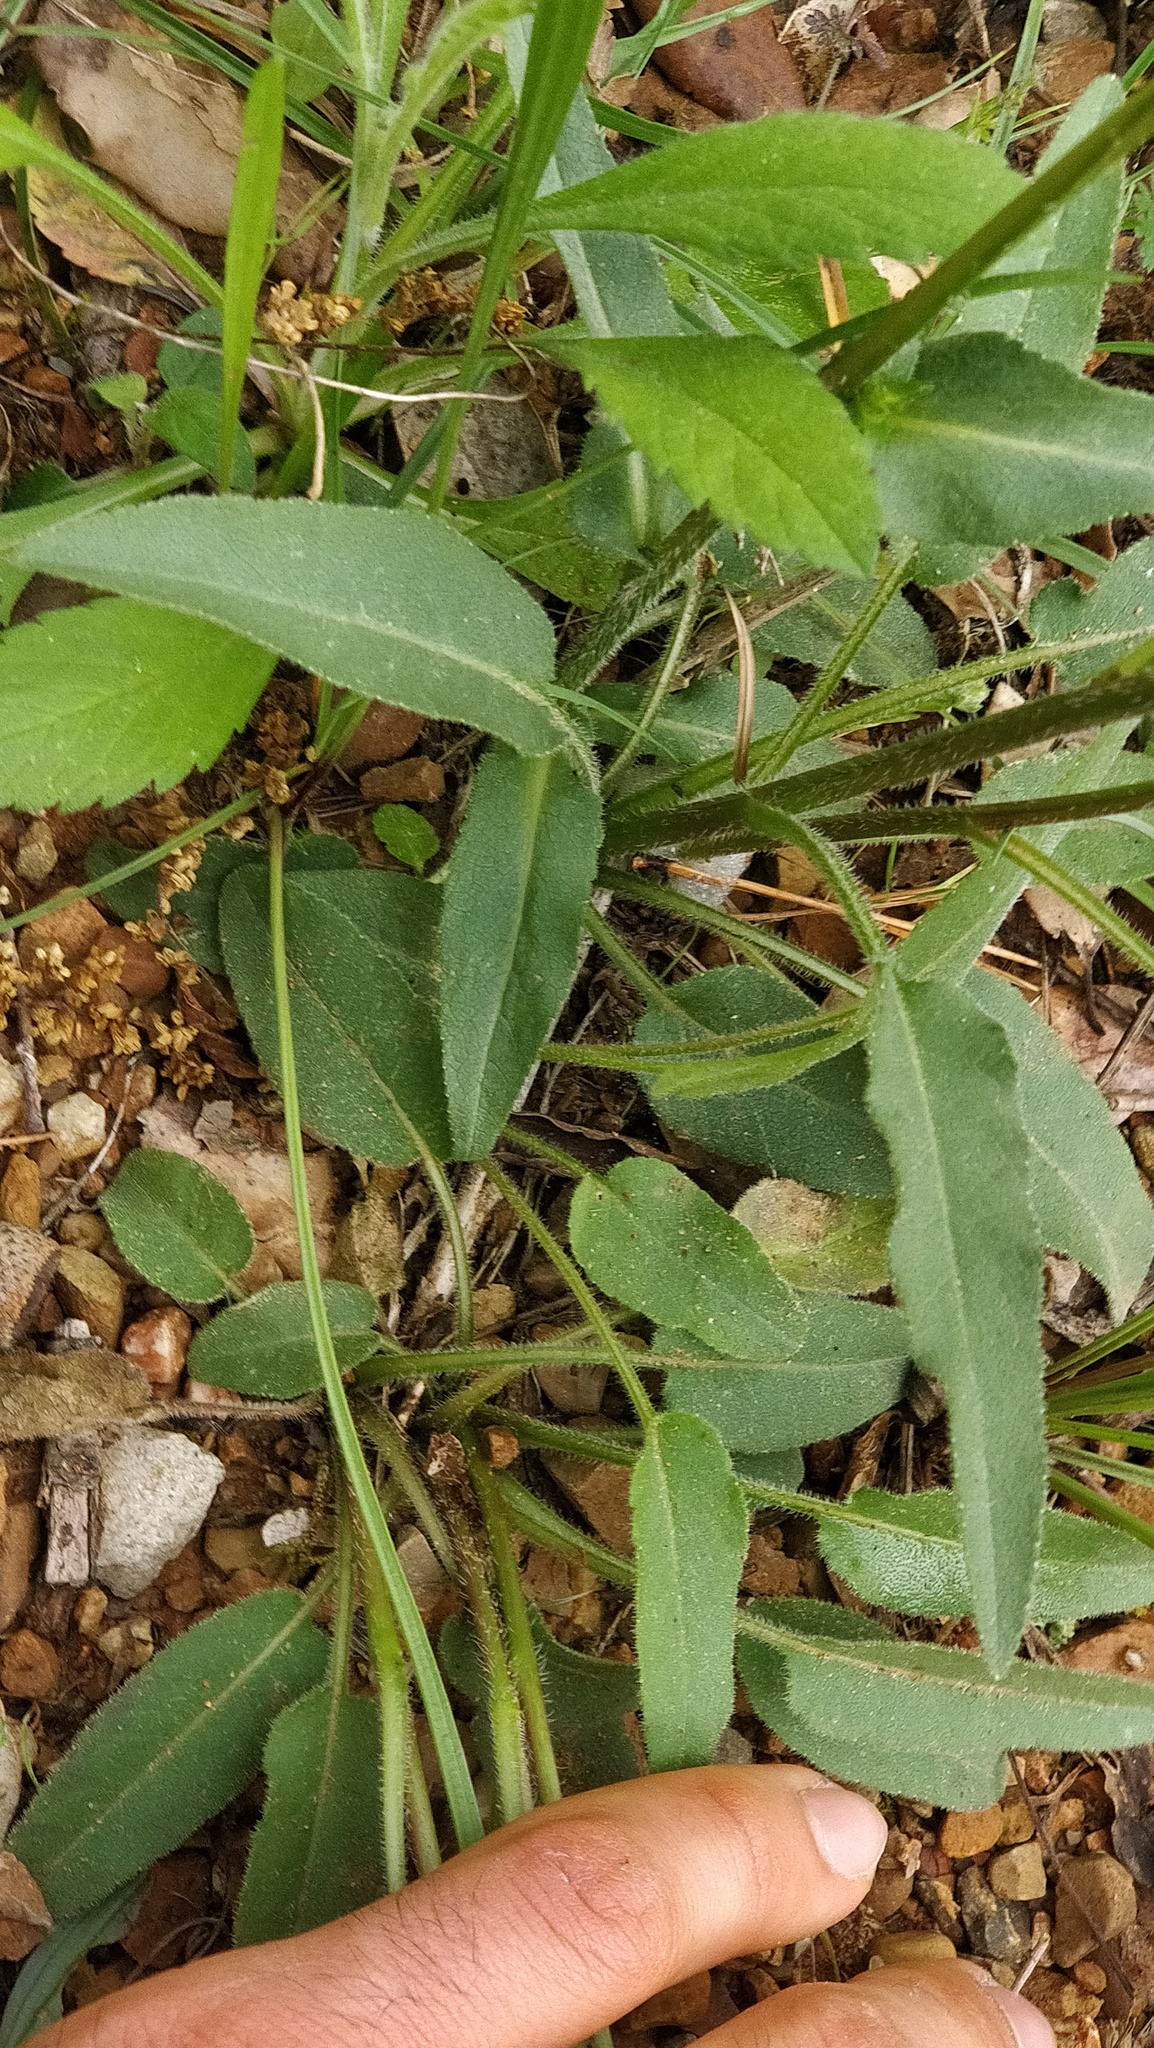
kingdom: Plantae
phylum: Tracheophyta
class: Magnoliopsida
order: Asterales
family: Campanulaceae
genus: Campanula
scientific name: Campanula glomerata
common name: Clustered bellflower
